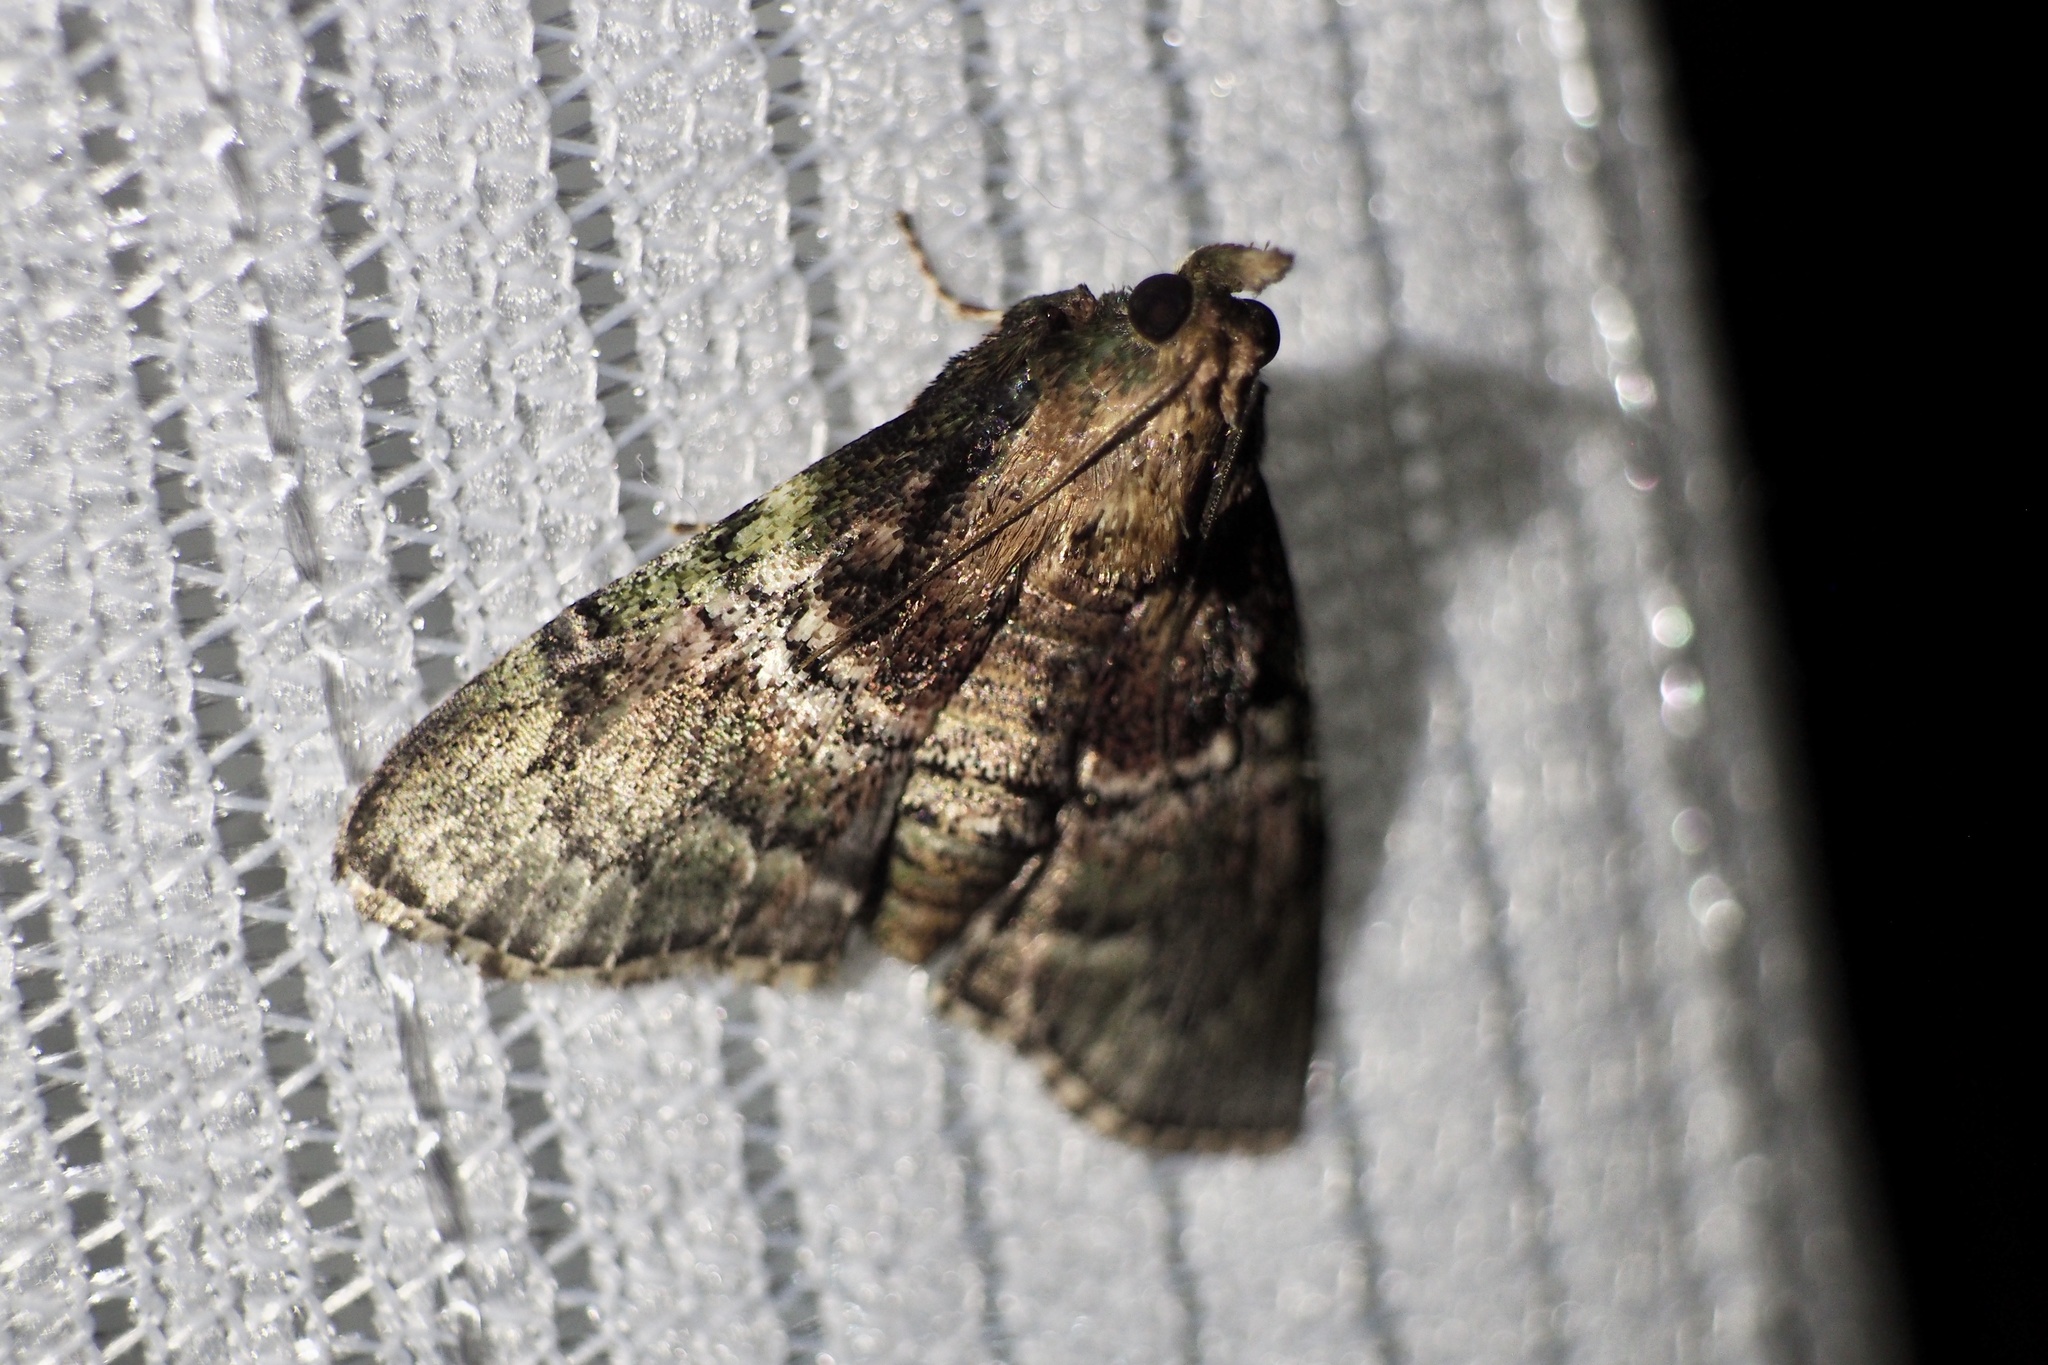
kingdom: Animalia
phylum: Arthropoda
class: Insecta
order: Lepidoptera
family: Pyralidae
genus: Locastra
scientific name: Locastra muscosalis
